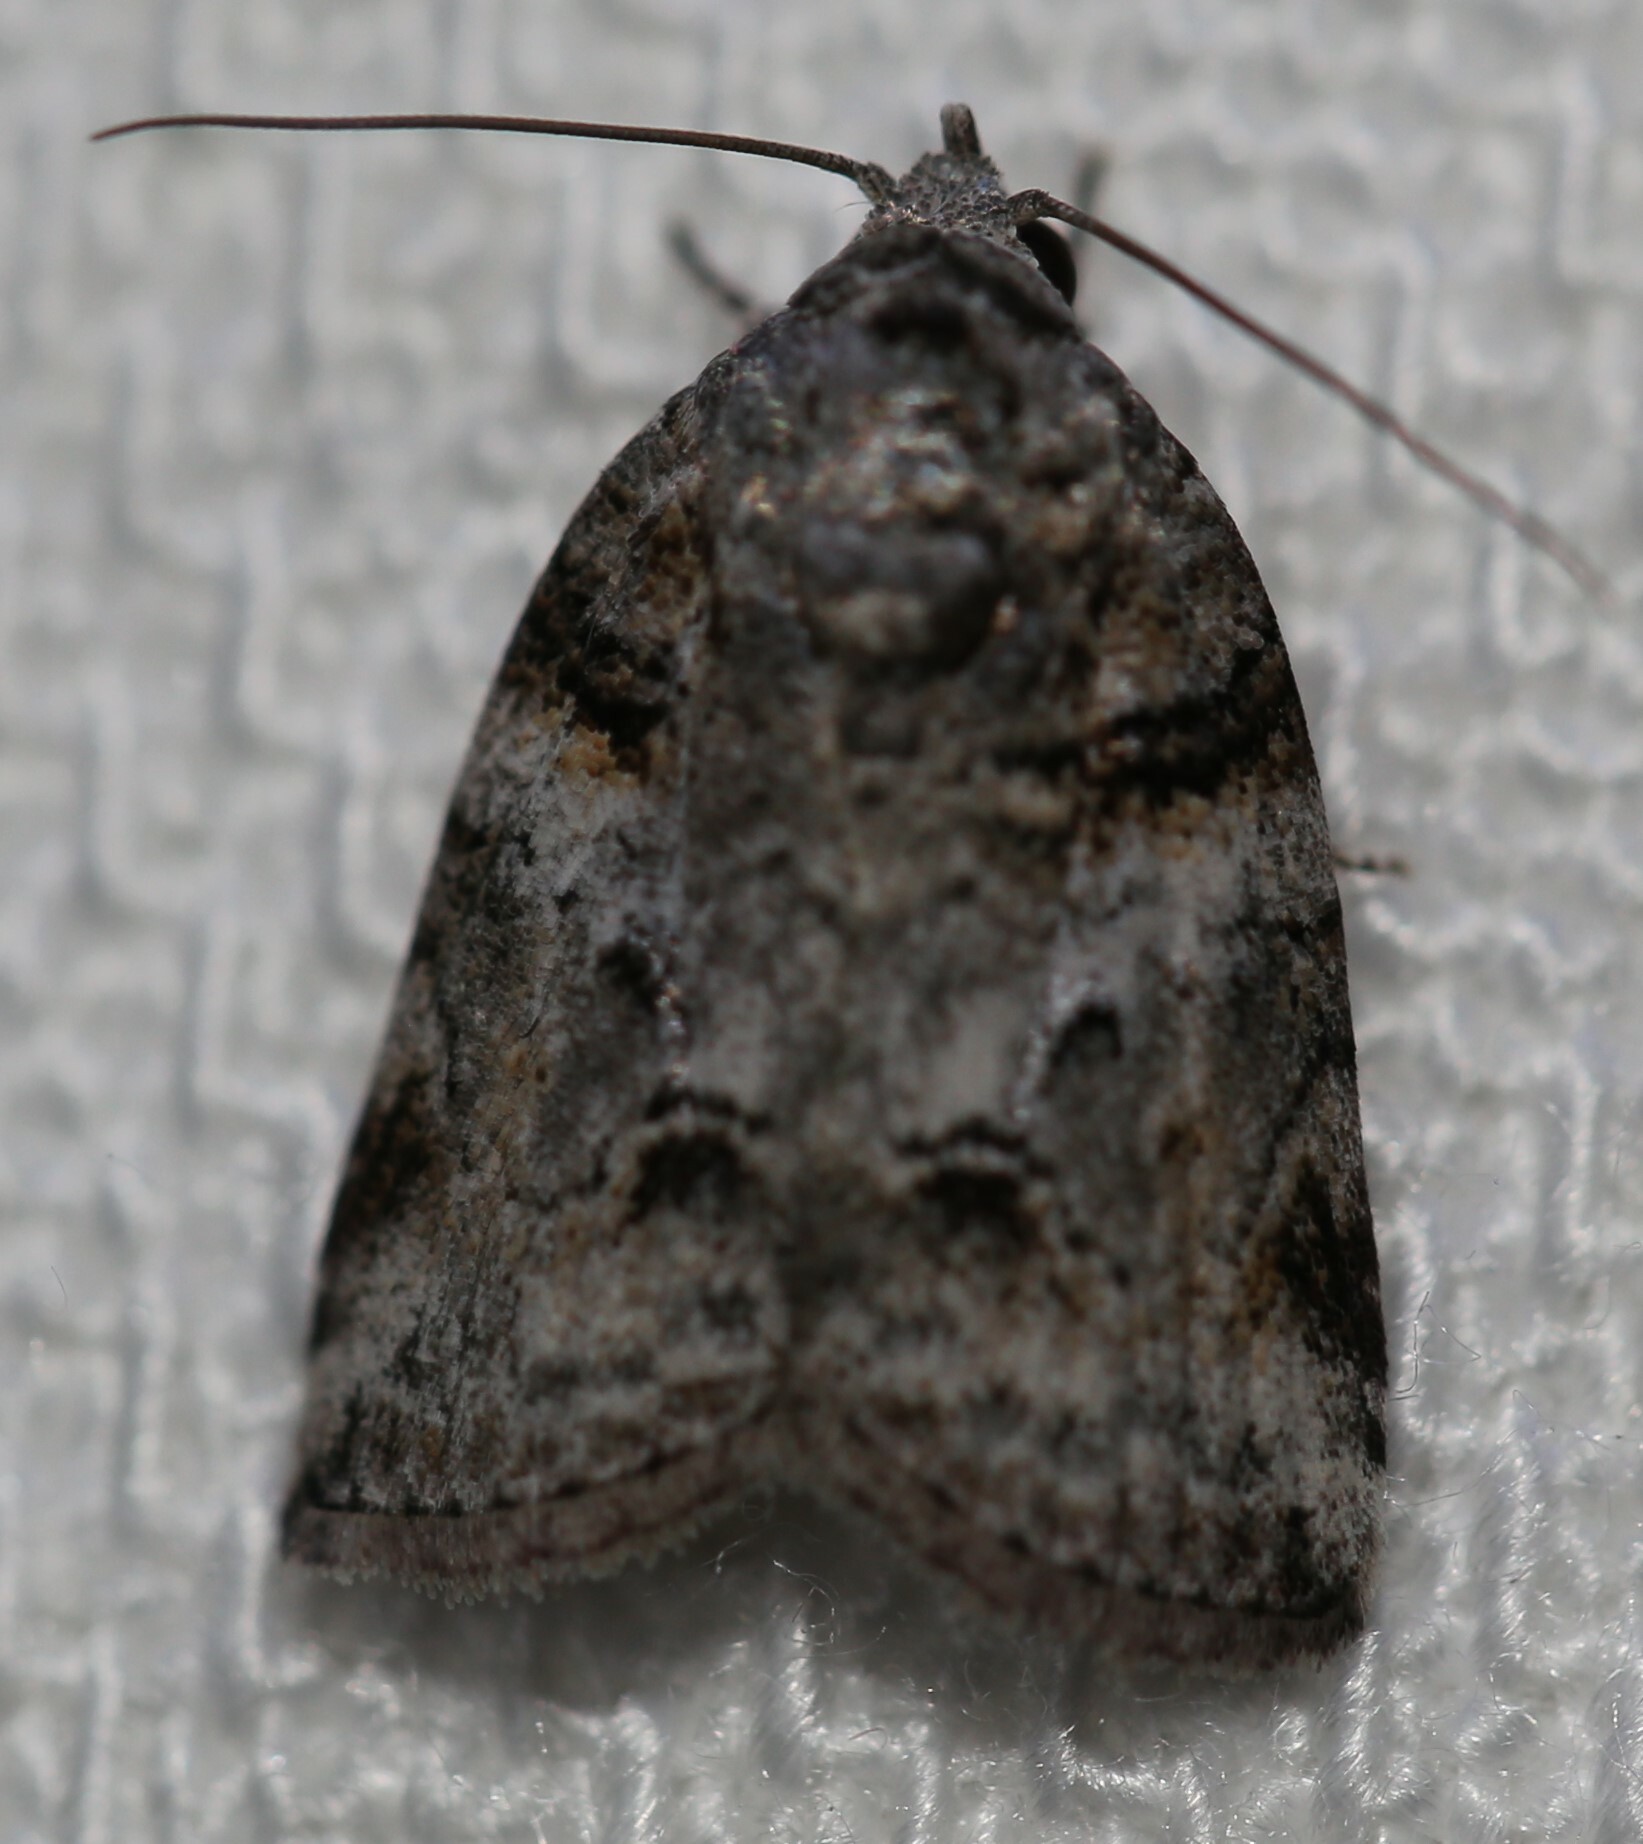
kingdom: Animalia
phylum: Arthropoda
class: Insecta
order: Lepidoptera
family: Nolidae
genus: Garella
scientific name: Garella vallata
